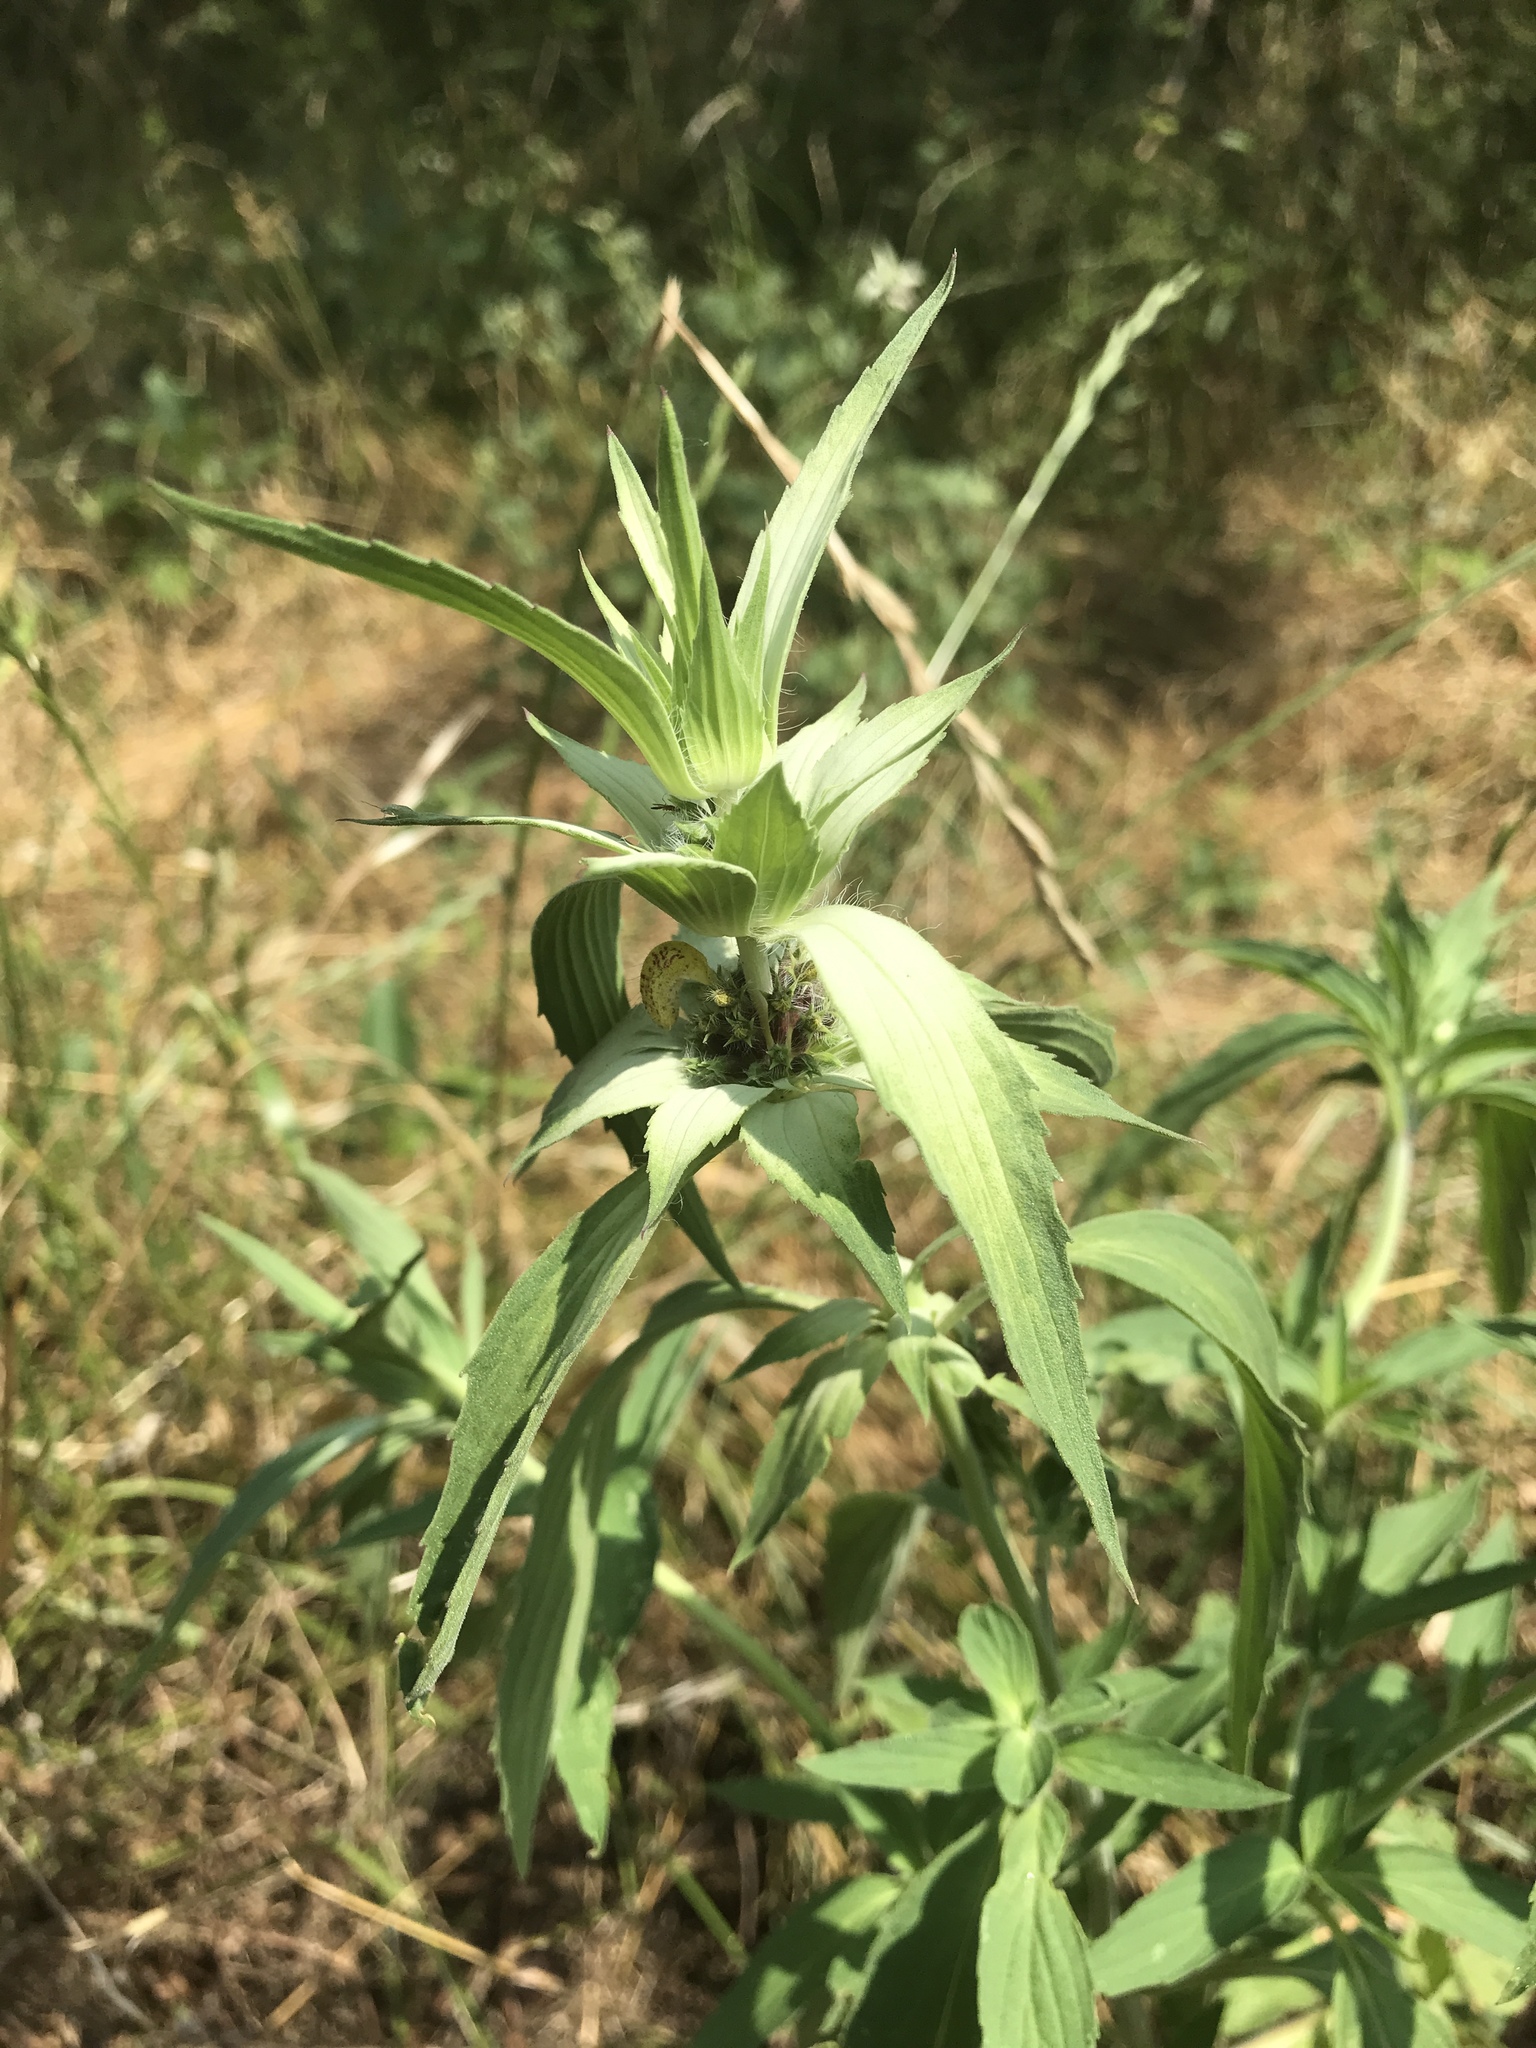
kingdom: Plantae
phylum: Tracheophyta
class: Magnoliopsida
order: Lamiales
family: Lamiaceae
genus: Monarda
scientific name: Monarda punctata
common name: Dotted monarda
